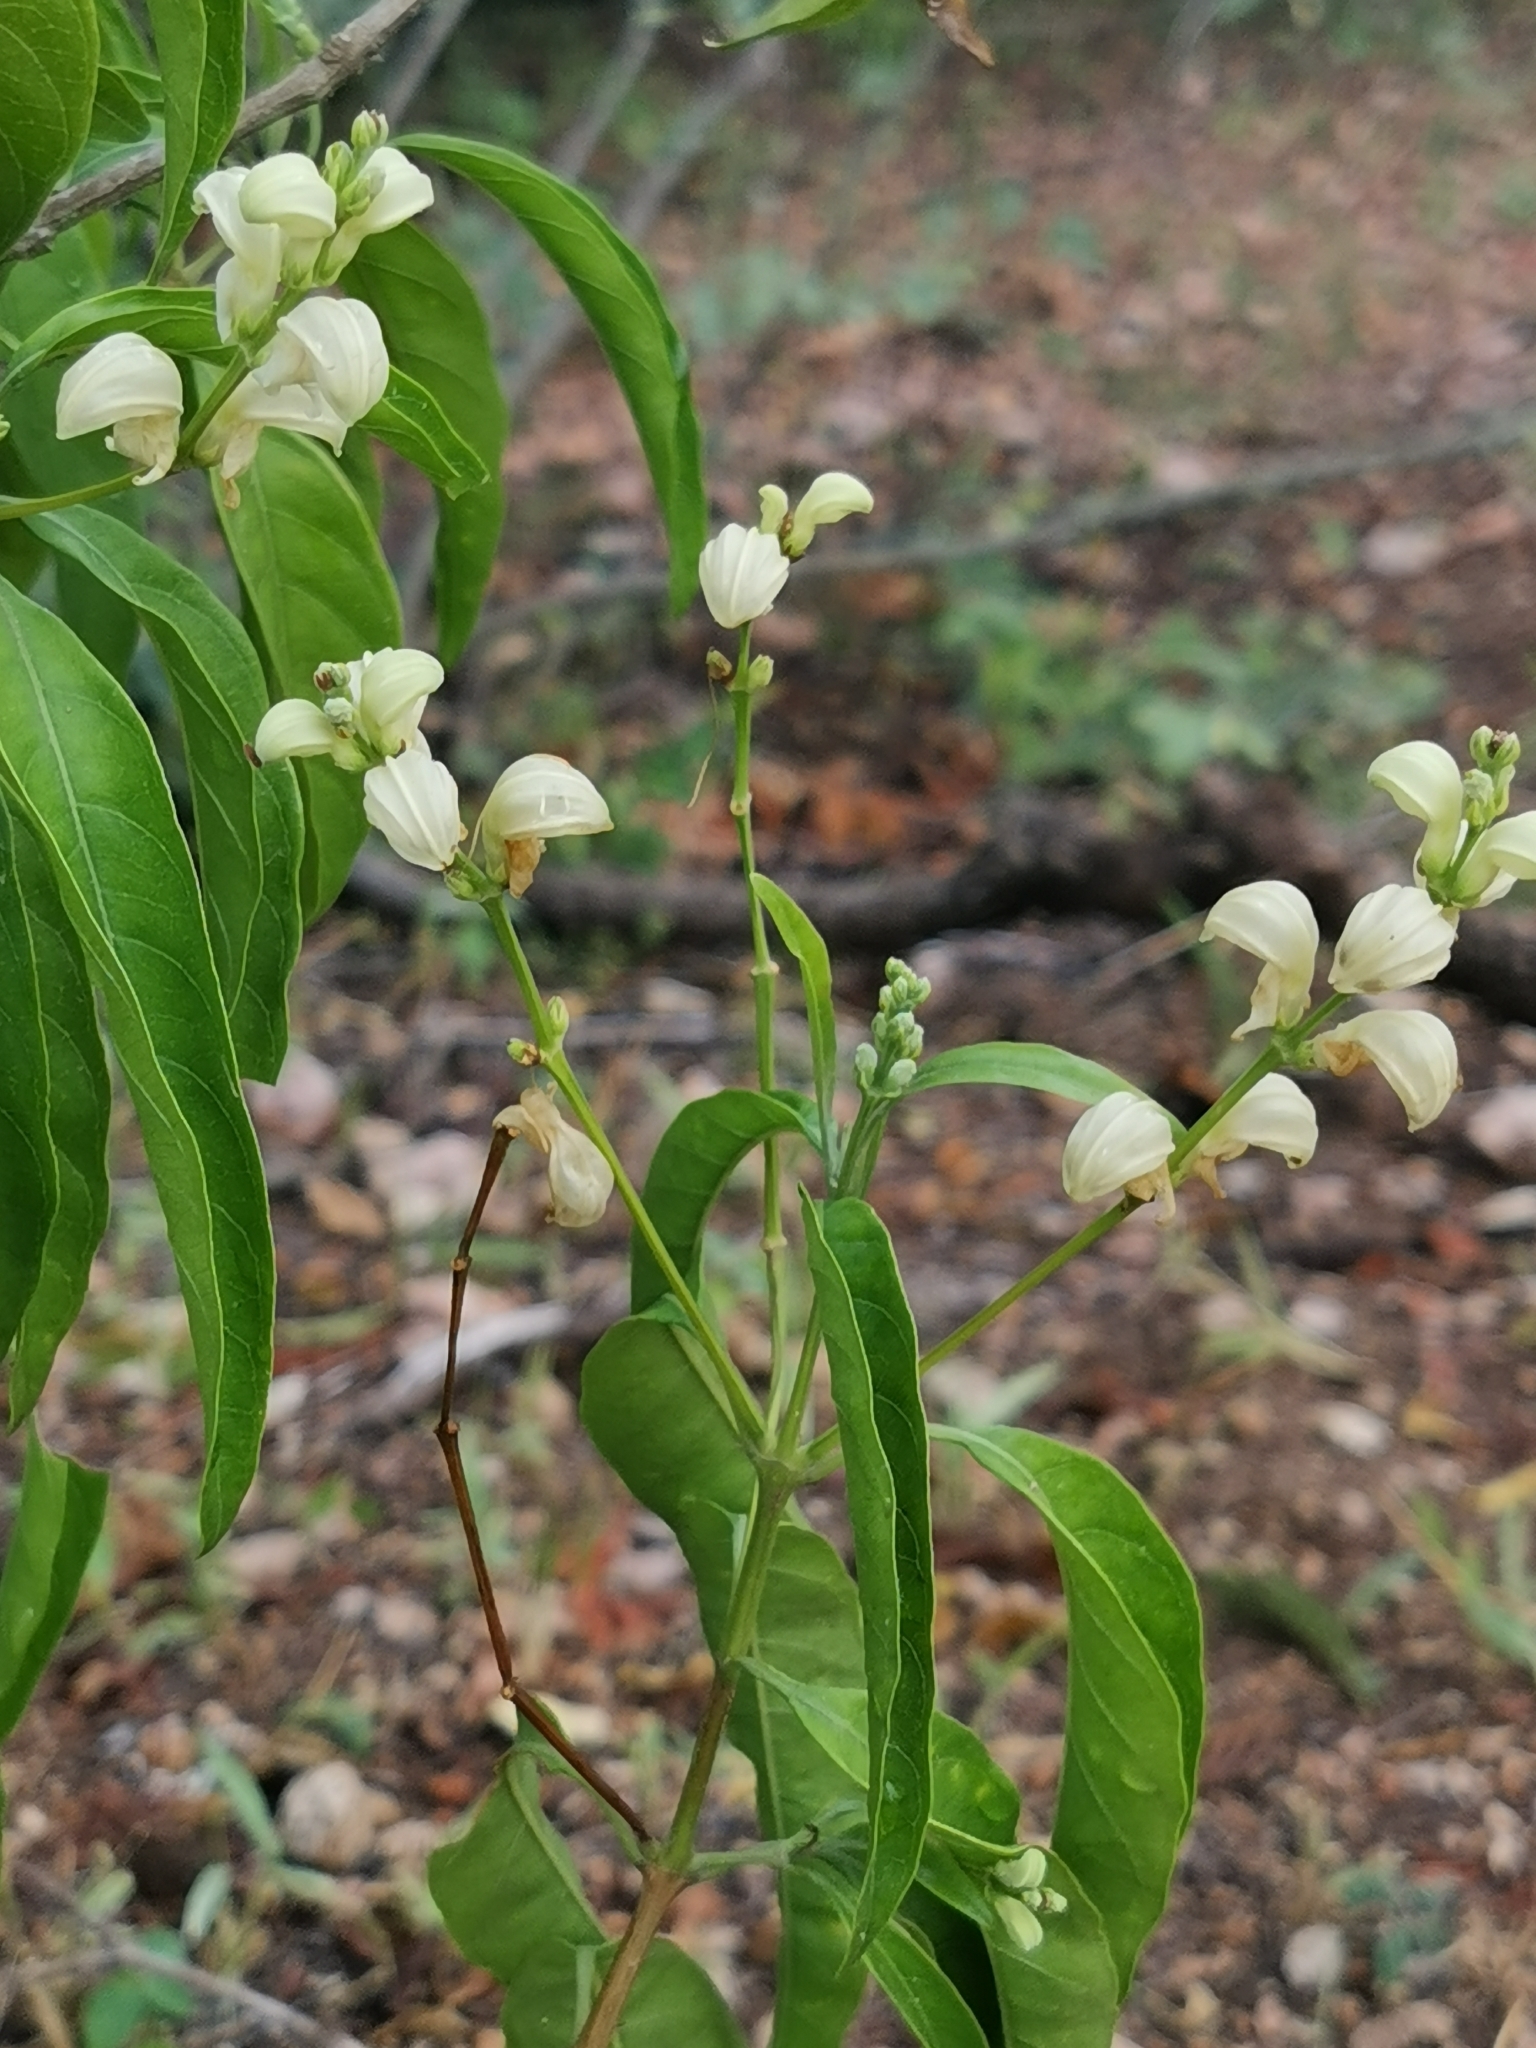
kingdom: Plantae
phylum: Tracheophyta
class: Magnoliopsida
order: Lamiales
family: Acanthaceae
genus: Justicia
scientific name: Justicia aconitiflora
